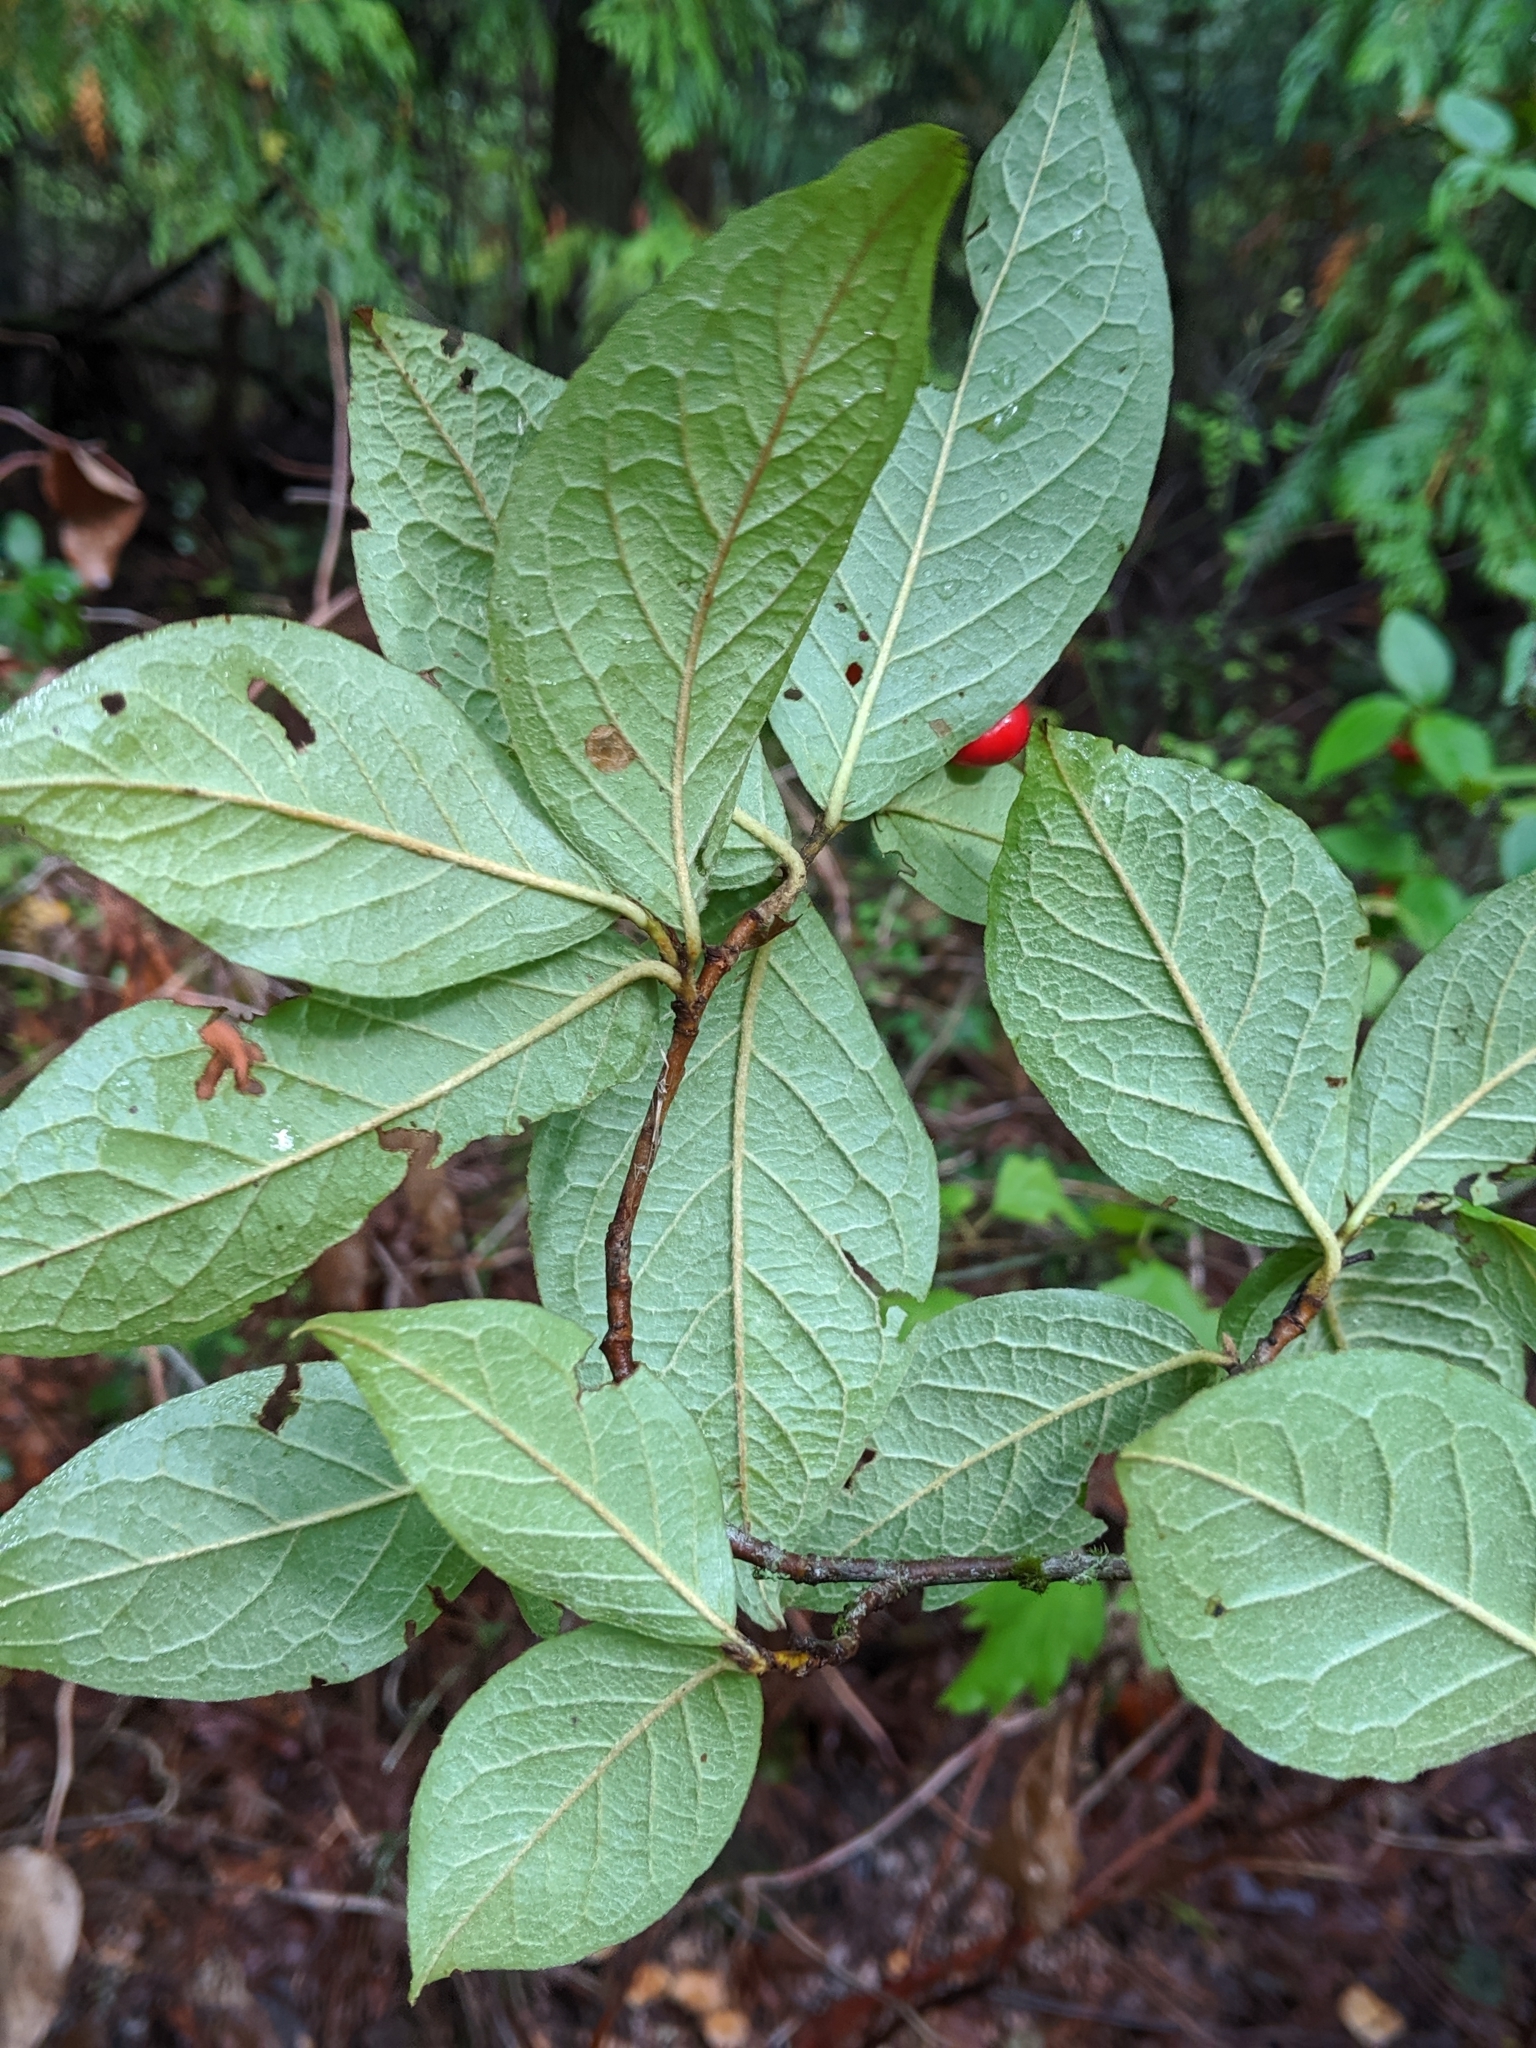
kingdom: Plantae
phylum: Tracheophyta
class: Magnoliopsida
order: Rosales
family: Rosaceae
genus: Cotoneaster
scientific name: Cotoneaster bullatus
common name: Hollyberry cotoneaster
